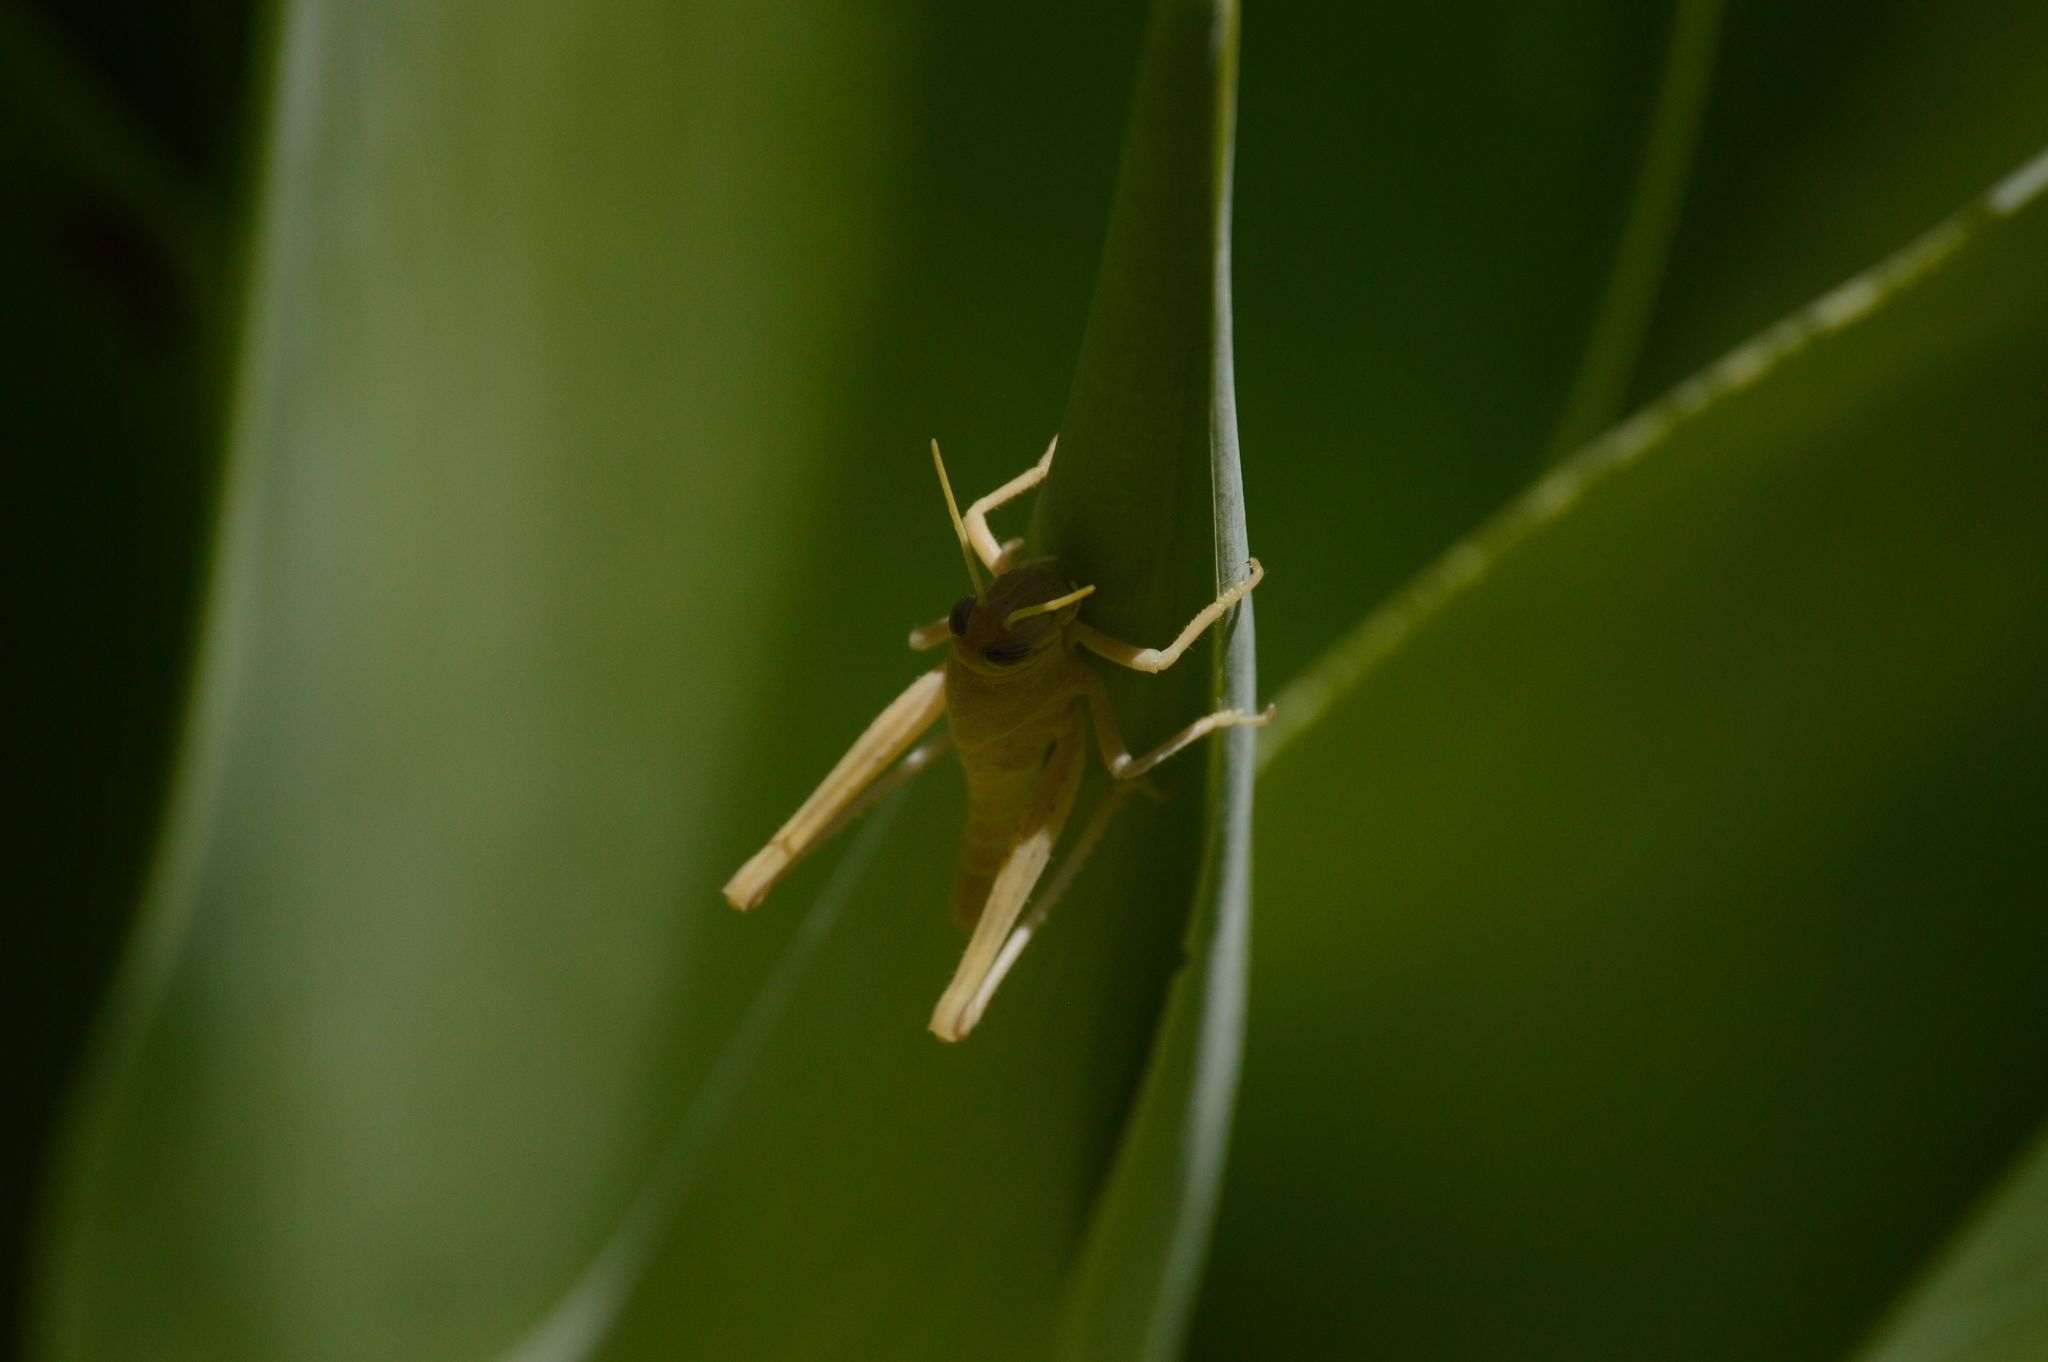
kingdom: Animalia
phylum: Arthropoda
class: Insecta
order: Orthoptera
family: Acrididae
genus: Schistocerca
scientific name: Schistocerca nitens
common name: Vagrant grasshopper
